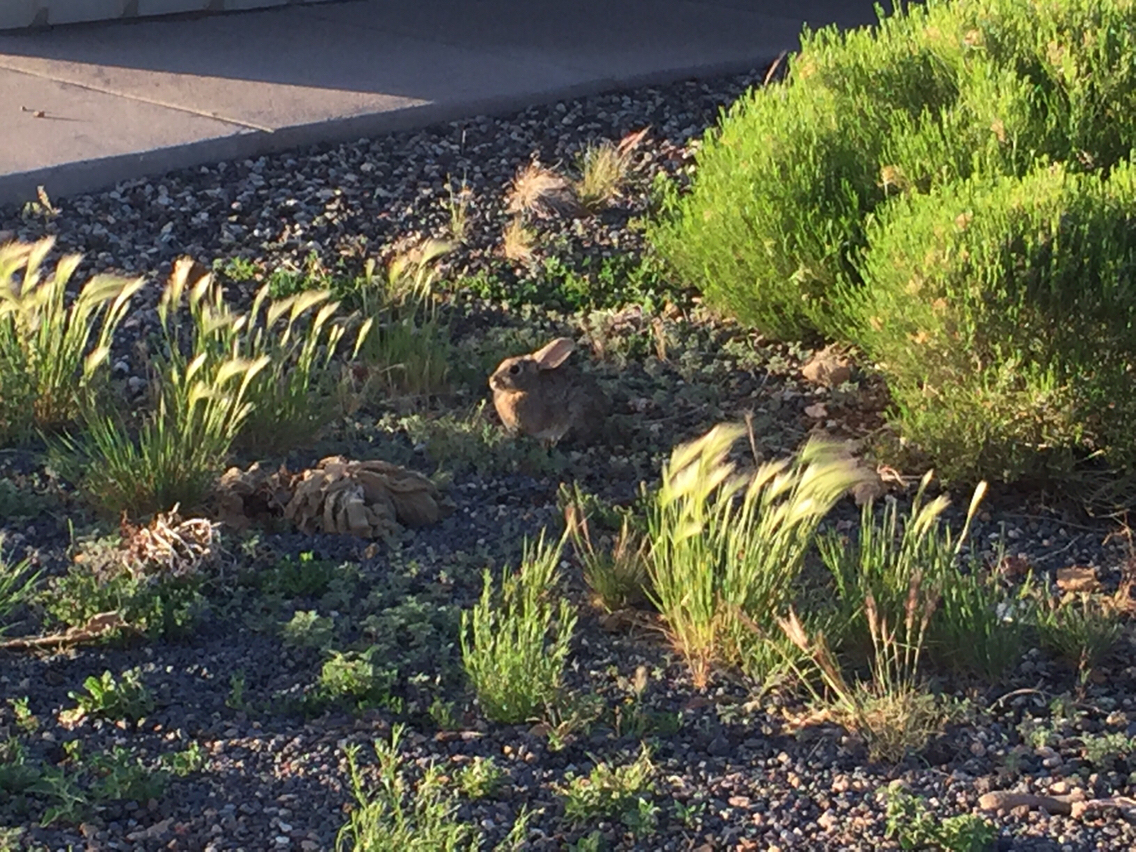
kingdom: Animalia
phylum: Chordata
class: Mammalia
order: Lagomorpha
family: Leporidae
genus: Sylvilagus
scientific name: Sylvilagus audubonii
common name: Desert cottontail
